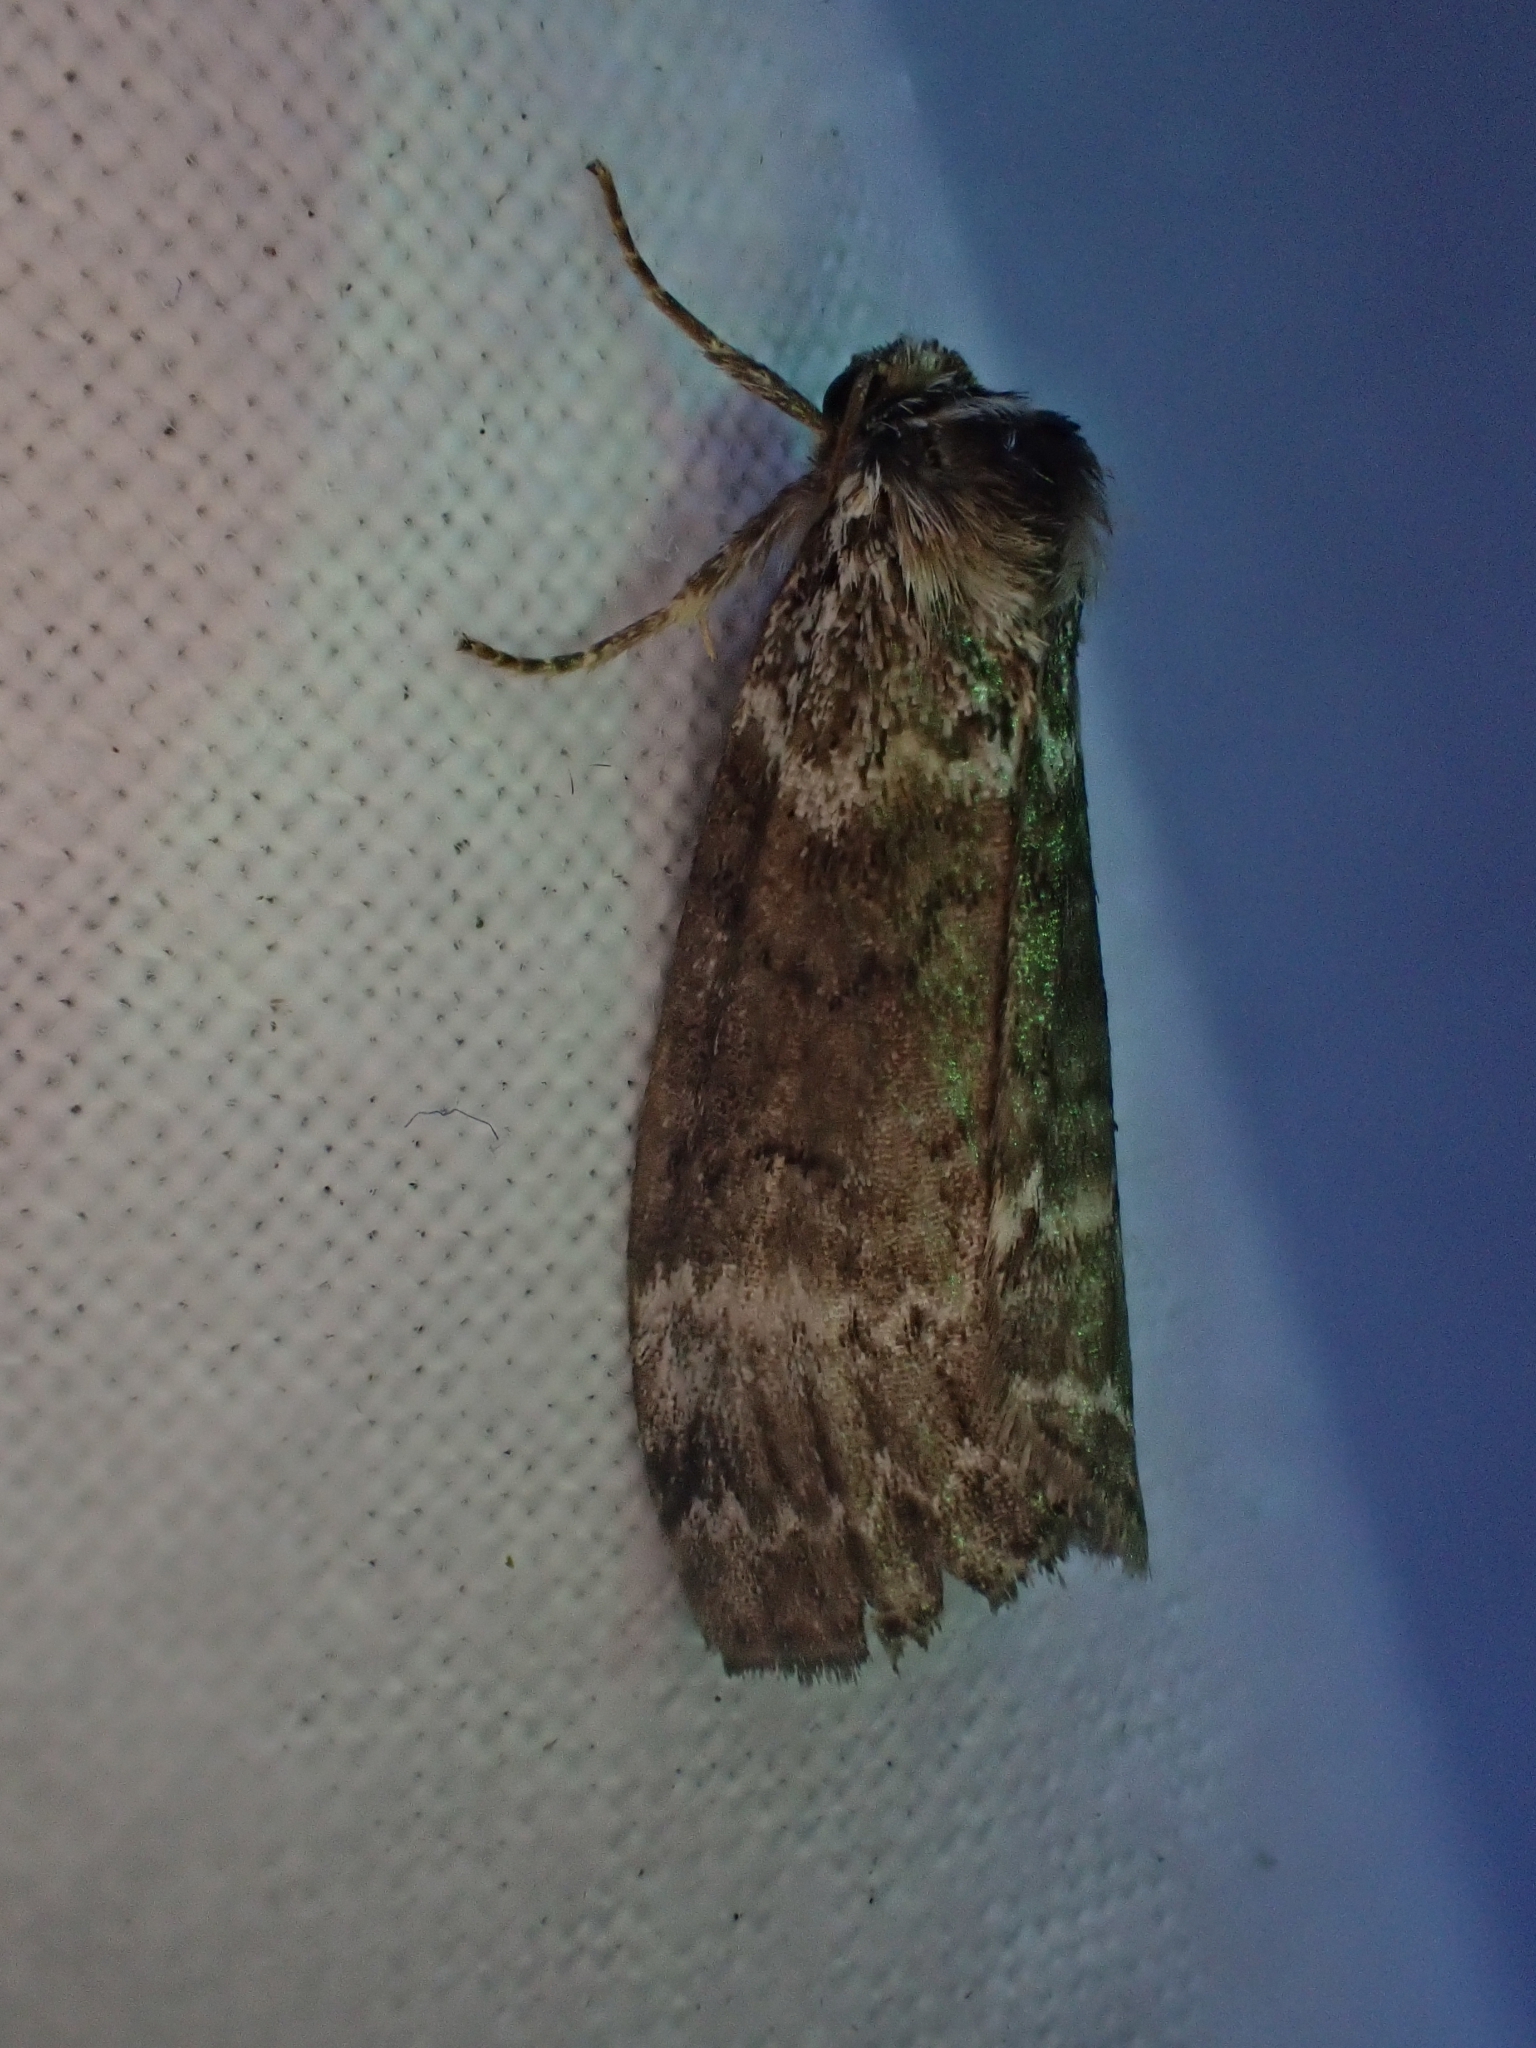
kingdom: Animalia
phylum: Arthropoda
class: Insecta
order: Lepidoptera
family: Drepanidae
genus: Tetheella
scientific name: Tetheella fluctuosa
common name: Satin lutestring
